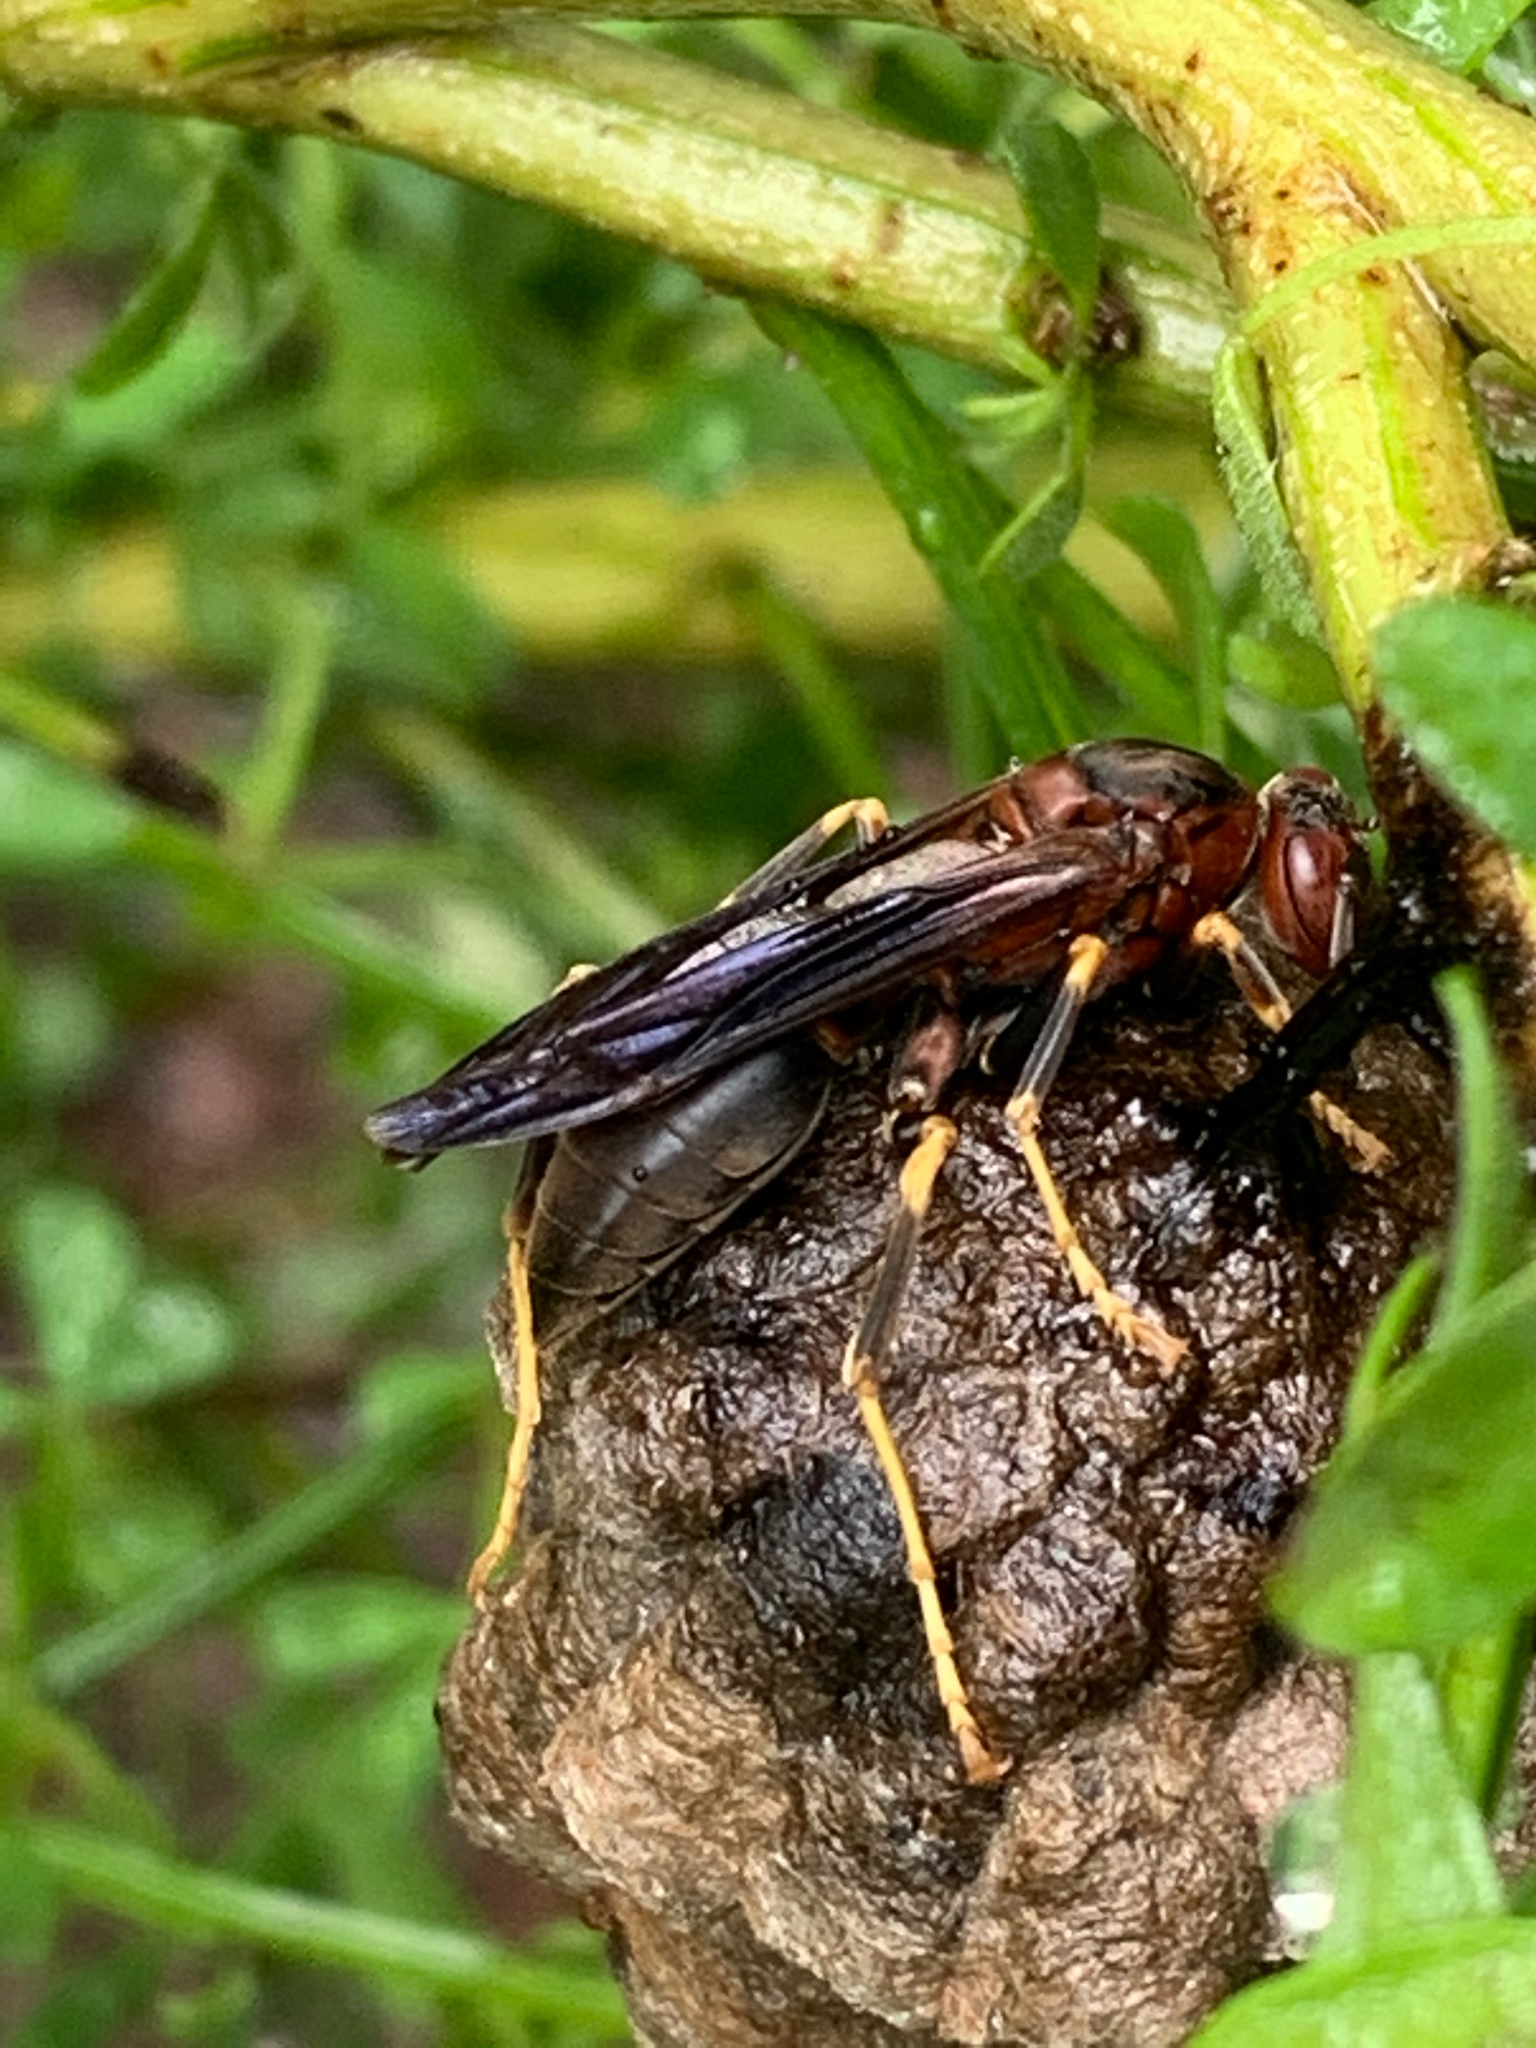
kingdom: Animalia
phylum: Arthropoda
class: Insecta
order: Hymenoptera
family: Eumenidae
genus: Polistes
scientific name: Polistes metricus
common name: Metric paper wasp
